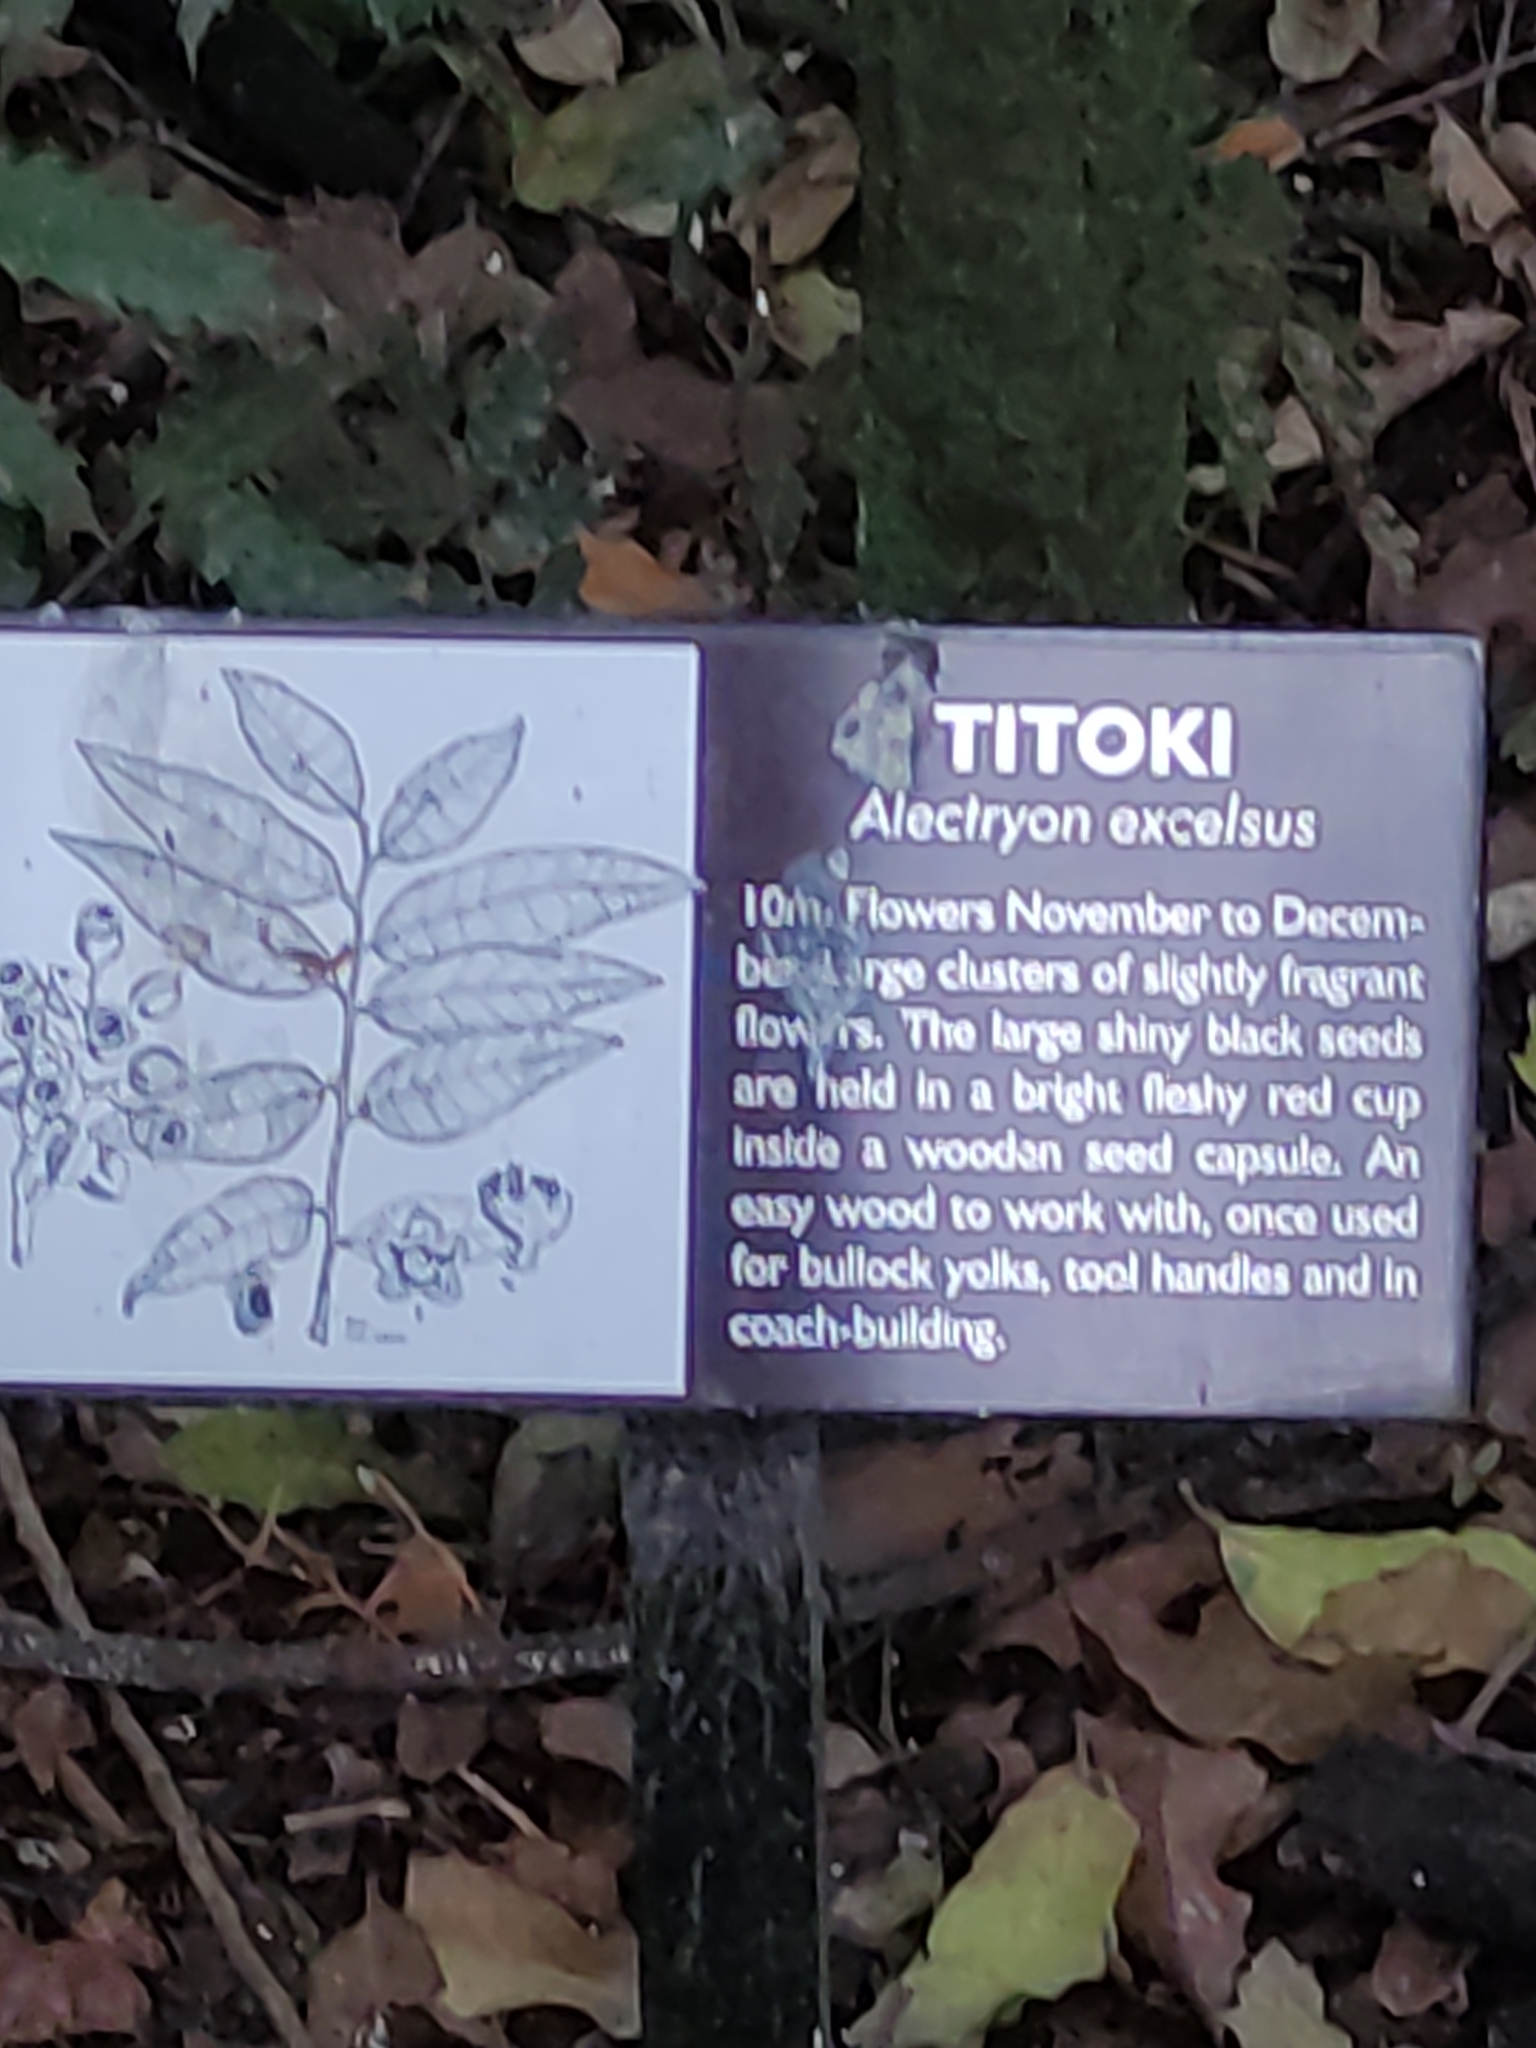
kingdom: Plantae
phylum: Tracheophyta
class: Magnoliopsida
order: Sapindales
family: Sapindaceae
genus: Alectryon
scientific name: Alectryon excelsus
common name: Three kings titoki
